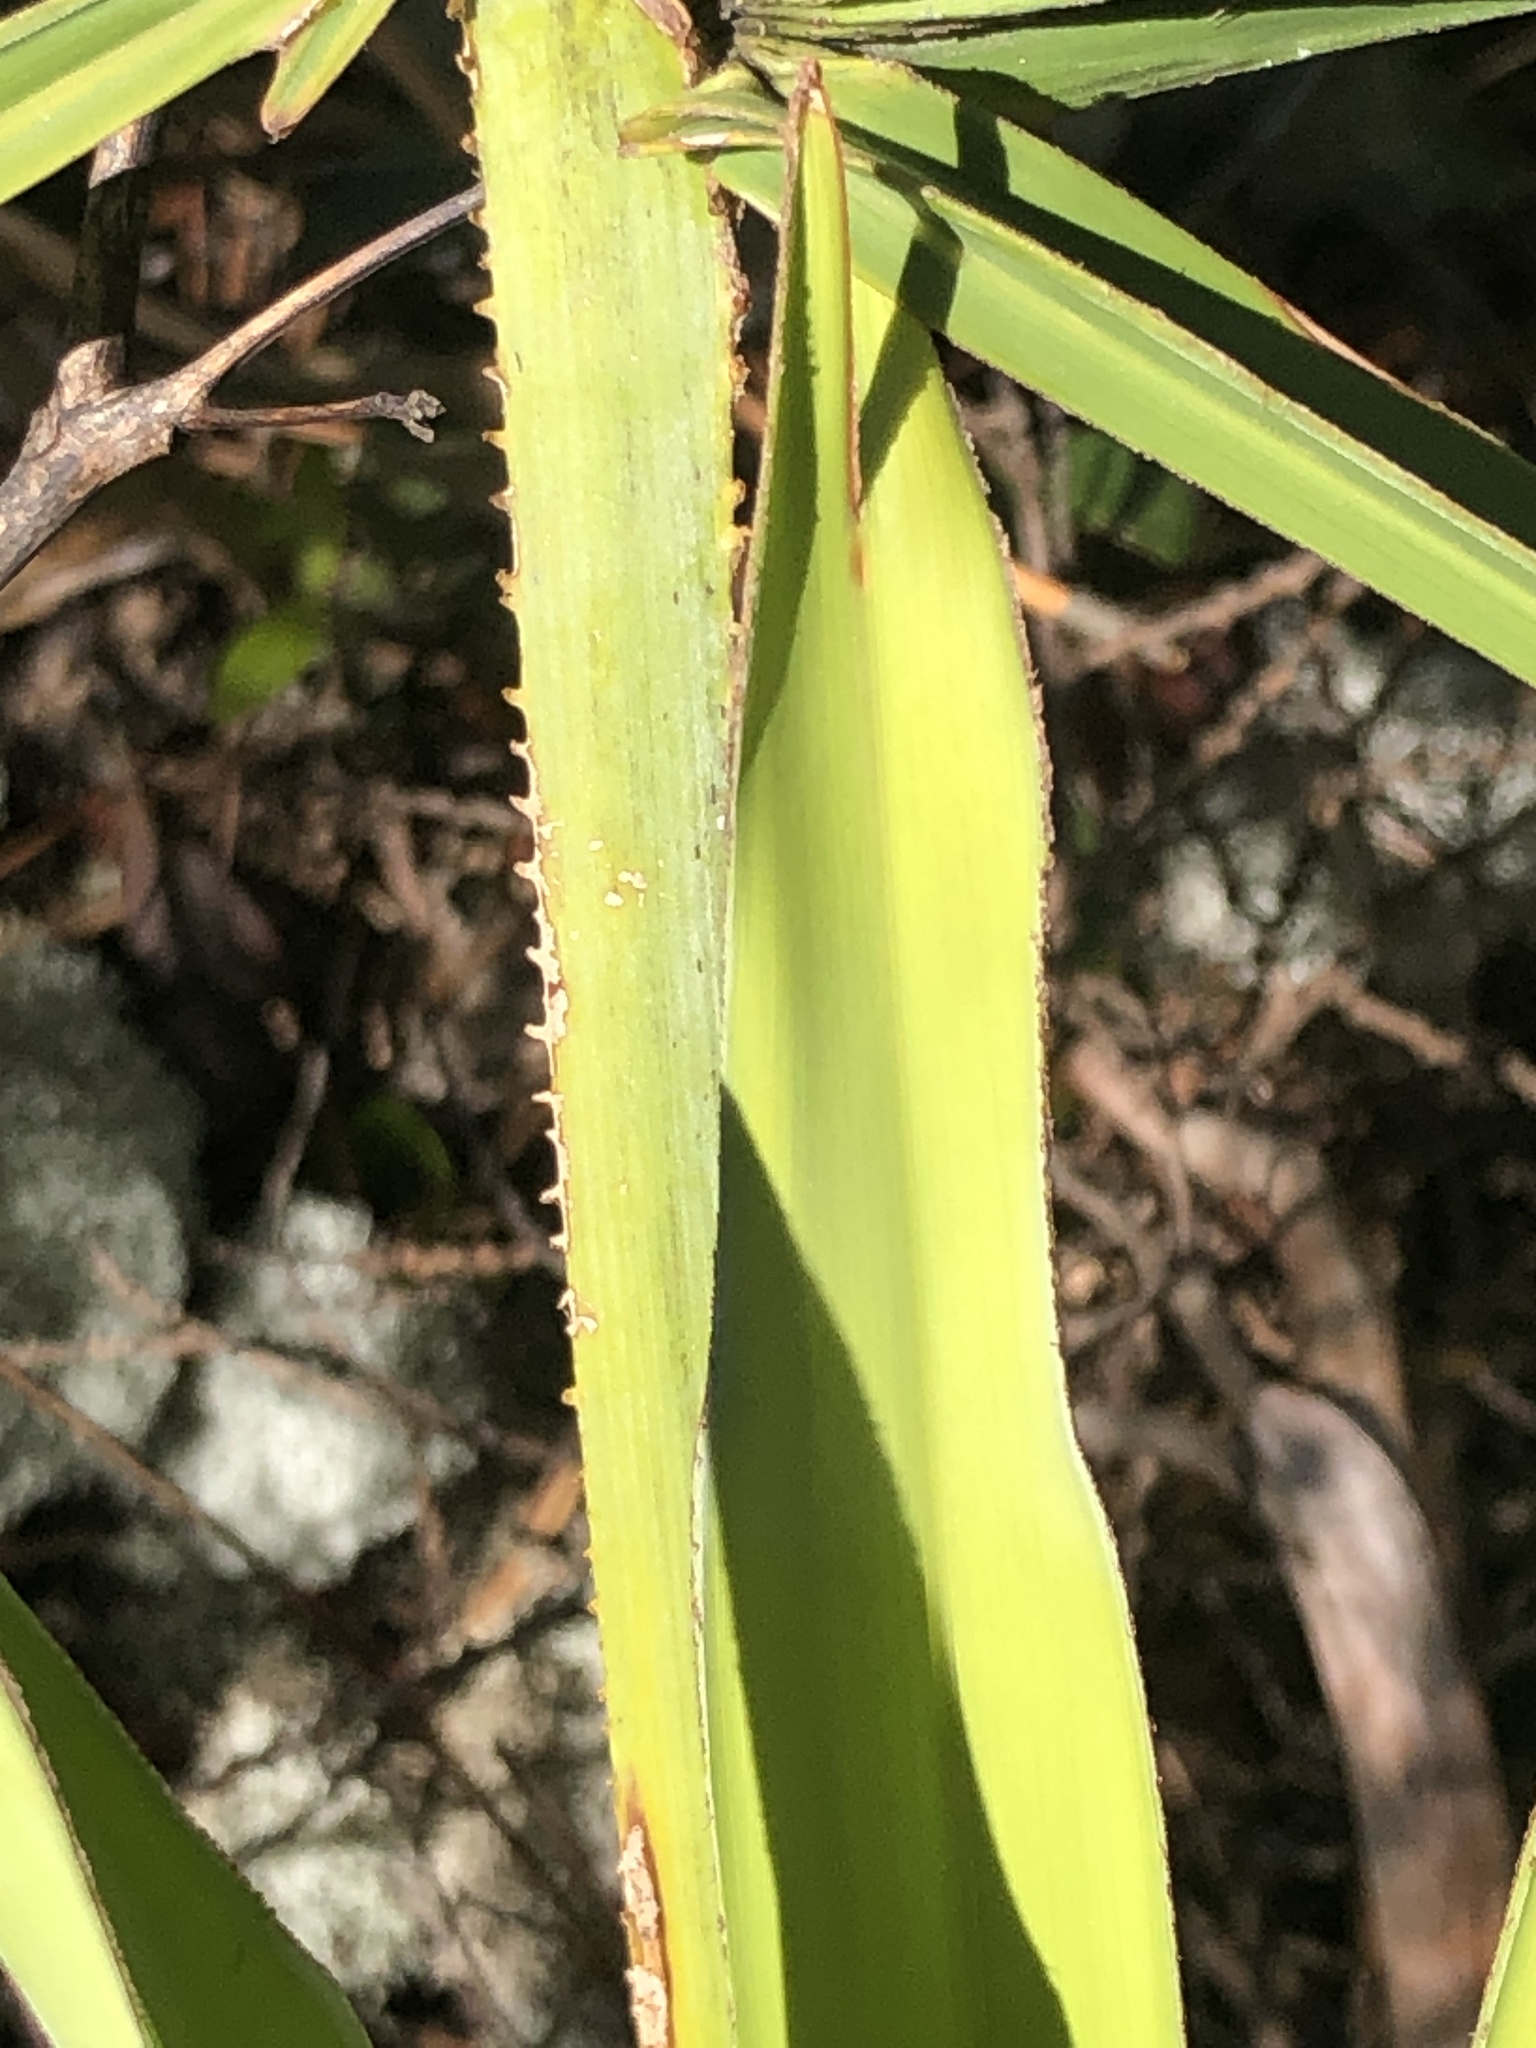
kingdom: Plantae
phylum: Tracheophyta
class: Liliopsida
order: Arecales
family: Arecaceae
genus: Serenoa
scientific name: Serenoa repens
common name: Saw-palmetto
